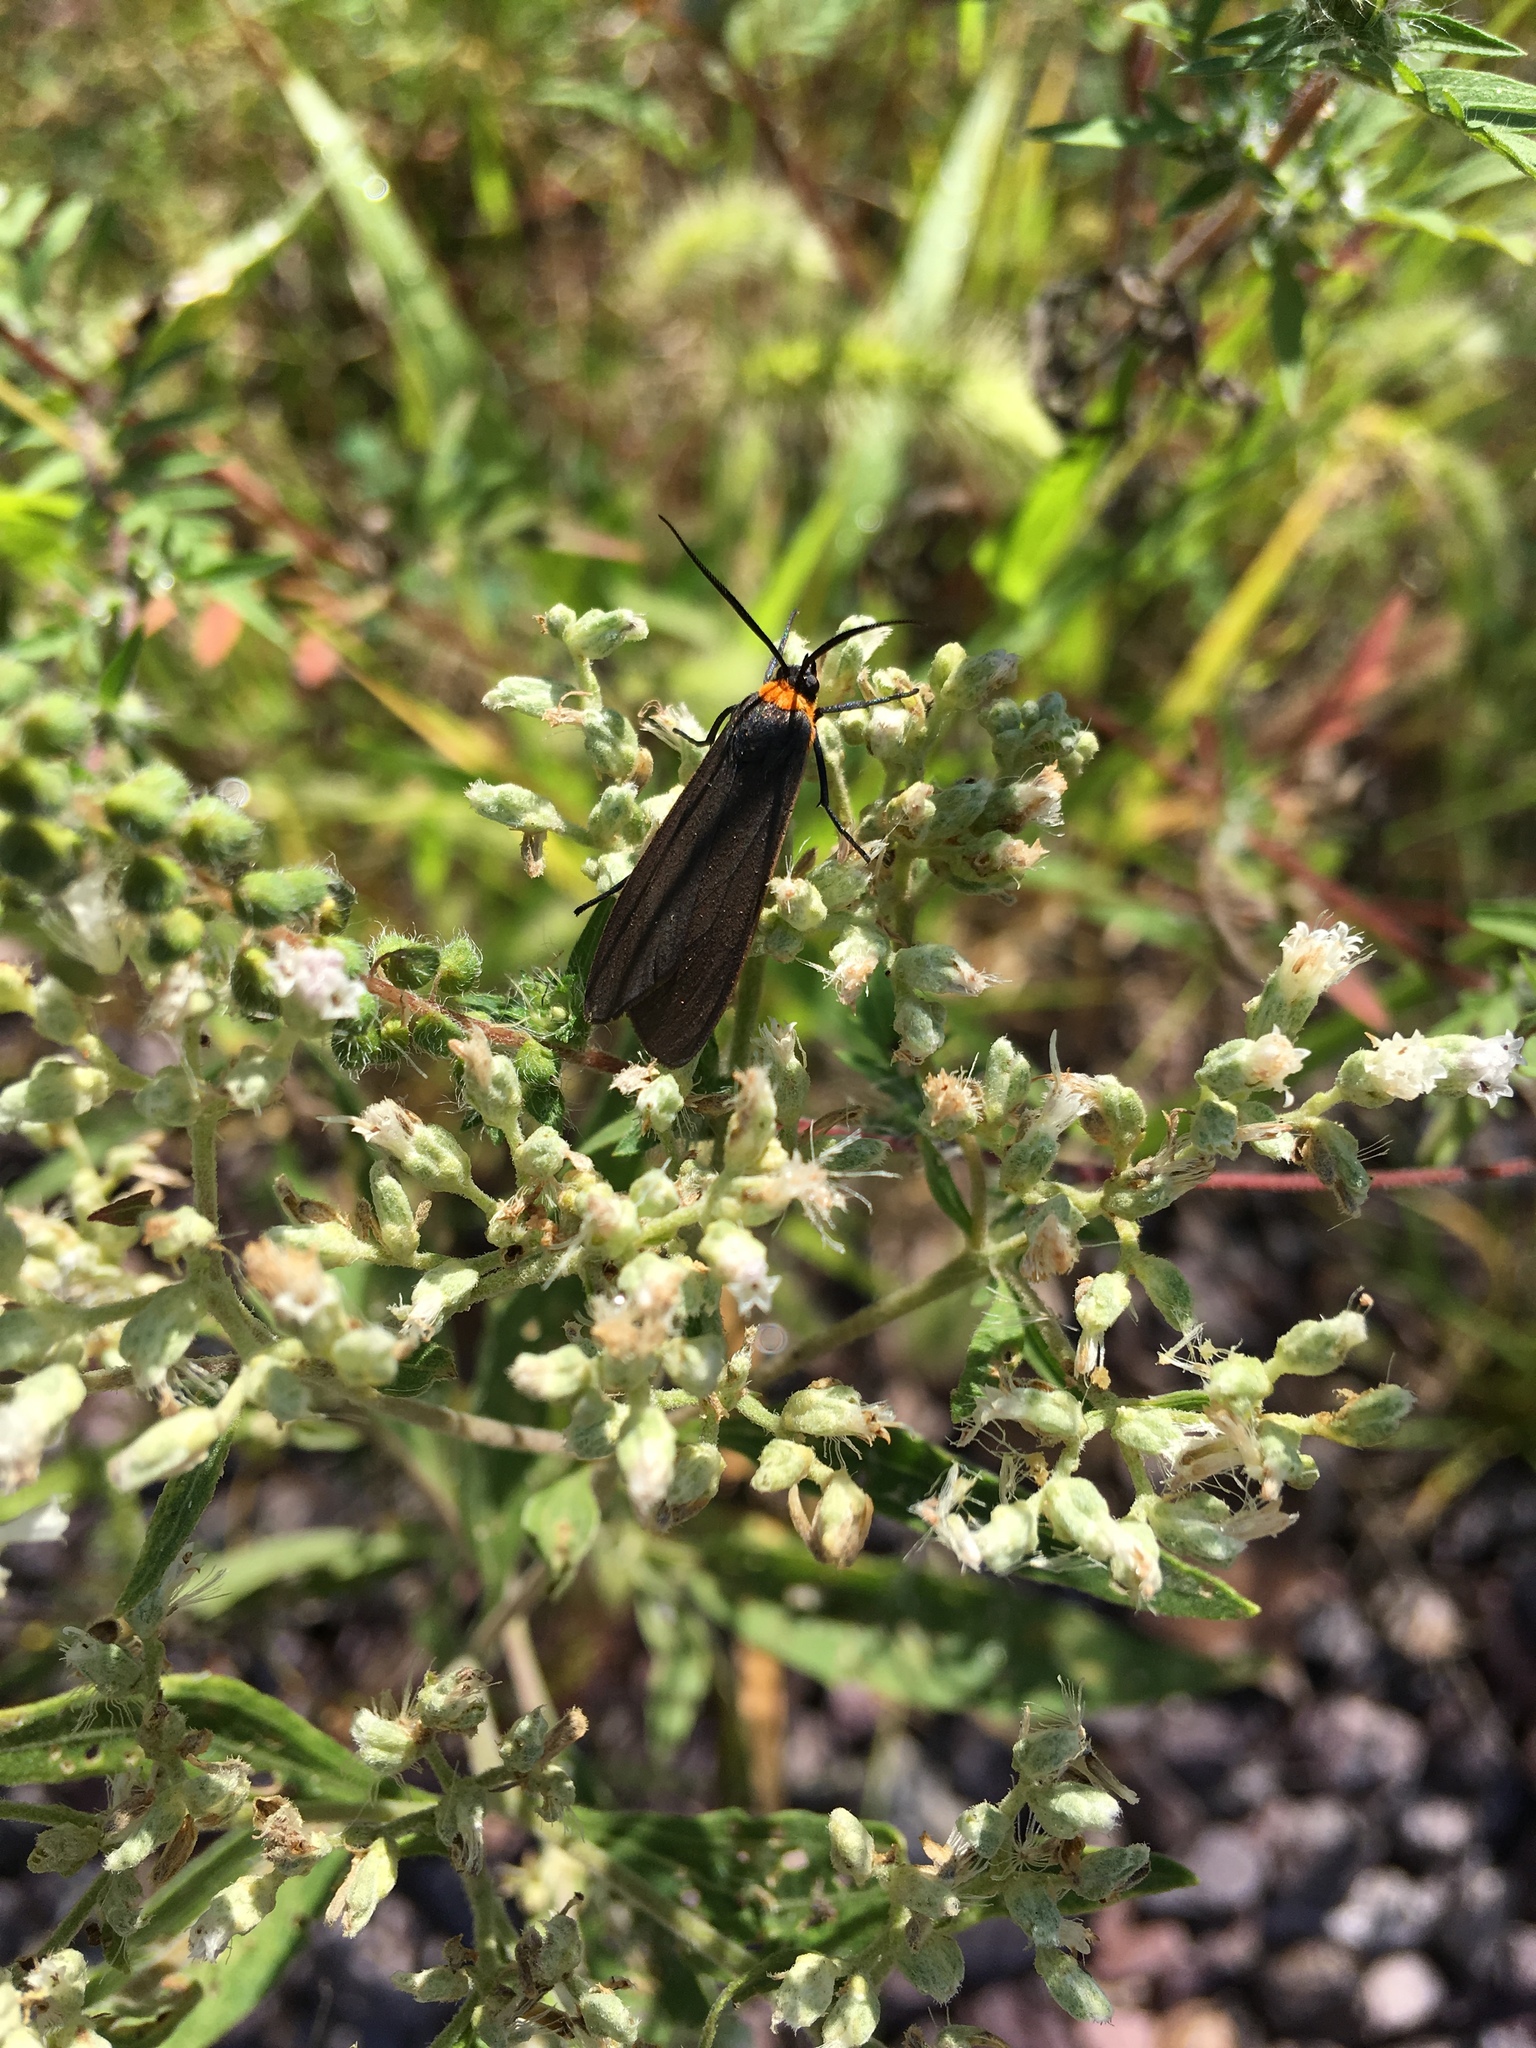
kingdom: Animalia
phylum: Arthropoda
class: Insecta
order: Lepidoptera
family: Erebidae
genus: Cisseps
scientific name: Cisseps fulvicollis
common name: Yellow-collared scape moth
